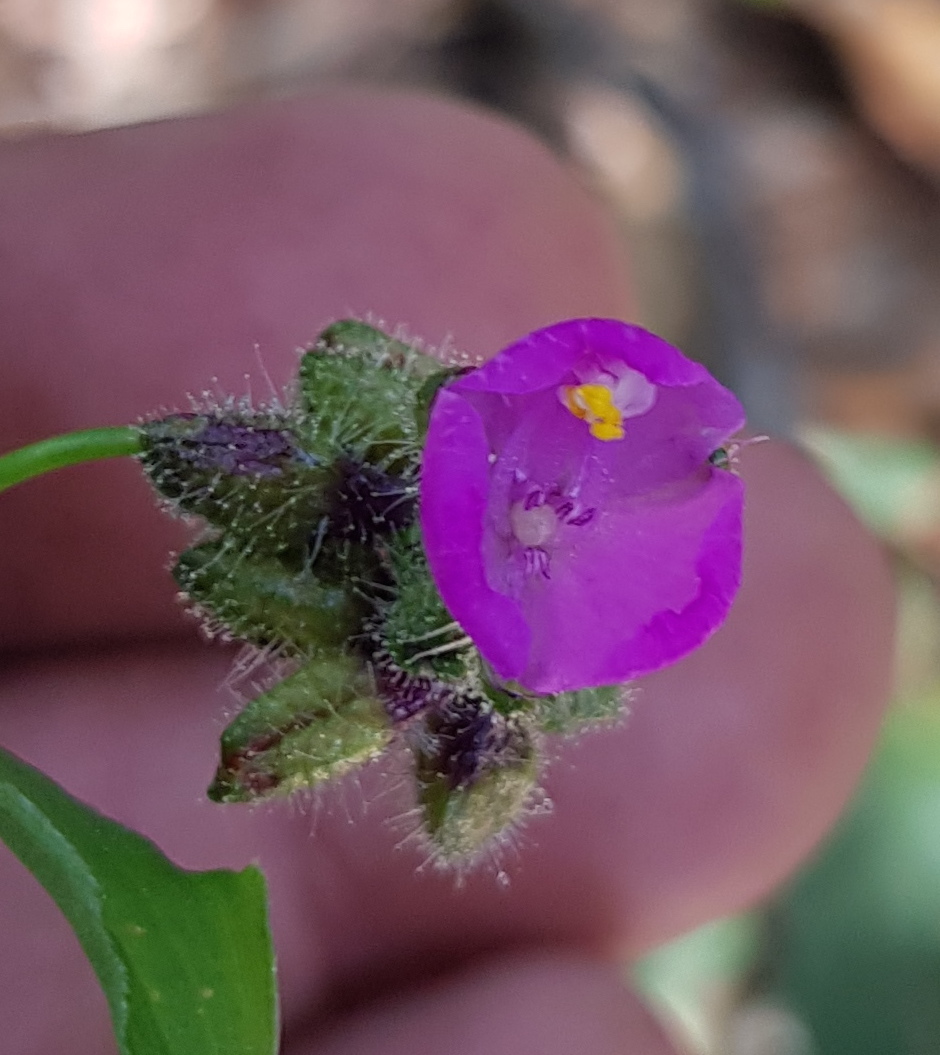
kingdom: Plantae
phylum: Tracheophyta
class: Liliopsida
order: Commelinales
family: Commelinaceae
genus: Tinantia
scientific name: Tinantia erecta
